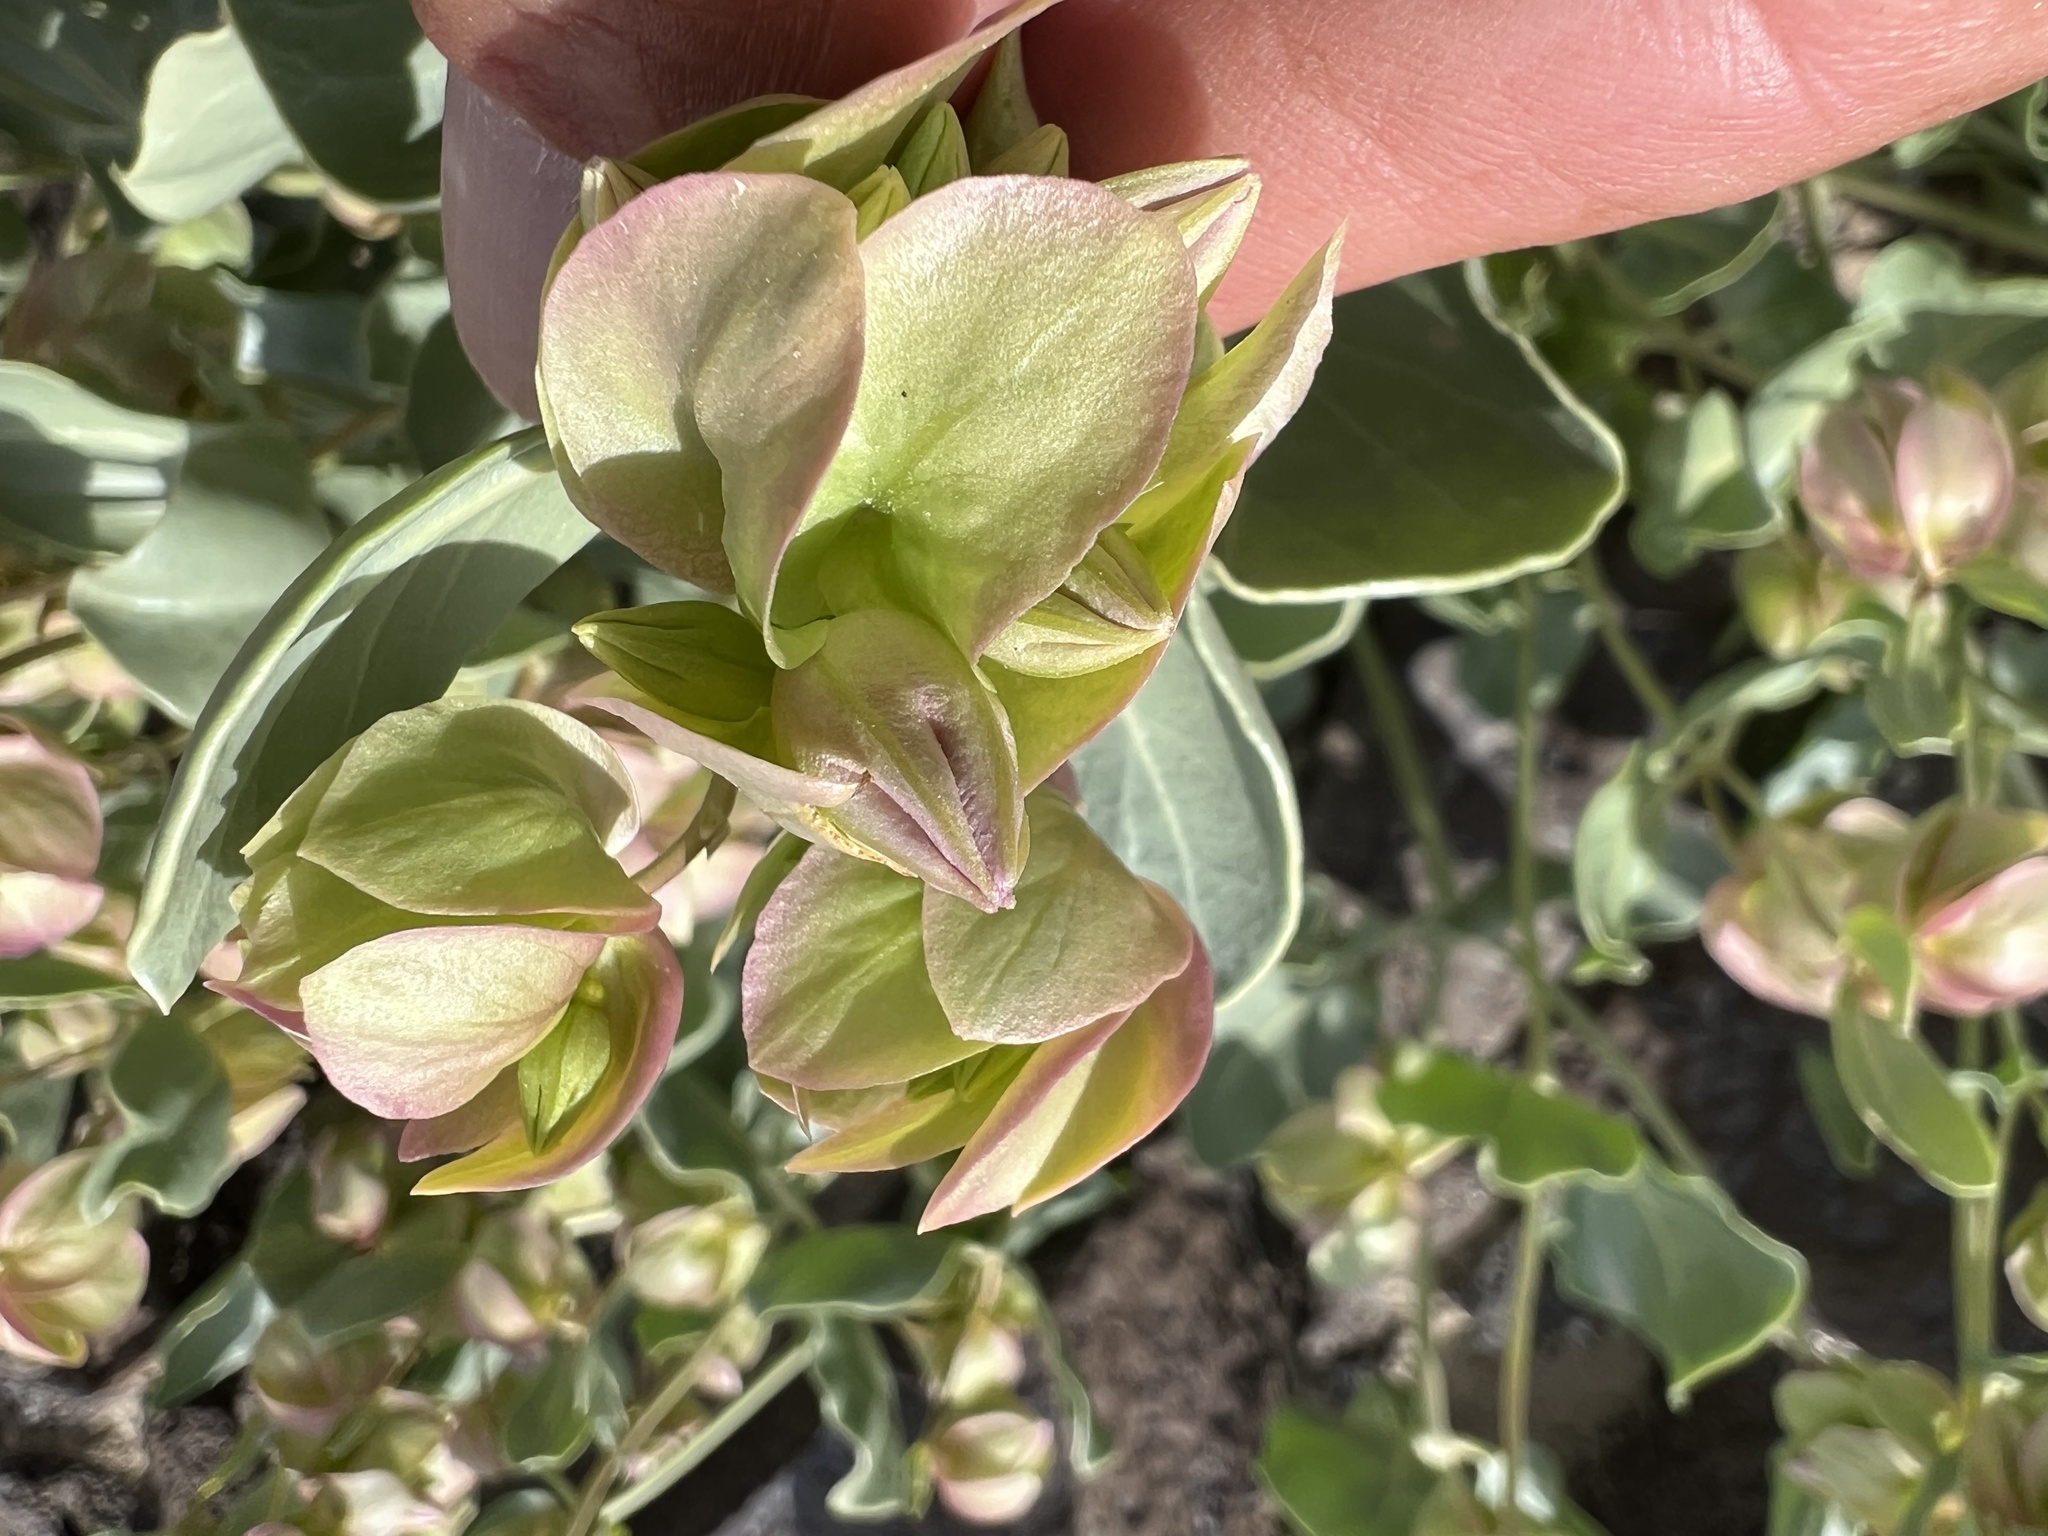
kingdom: Plantae
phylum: Tracheophyta
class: Magnoliopsida
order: Caryophyllales
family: Nyctaginaceae
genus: Mirabilis
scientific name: Mirabilis alipes
